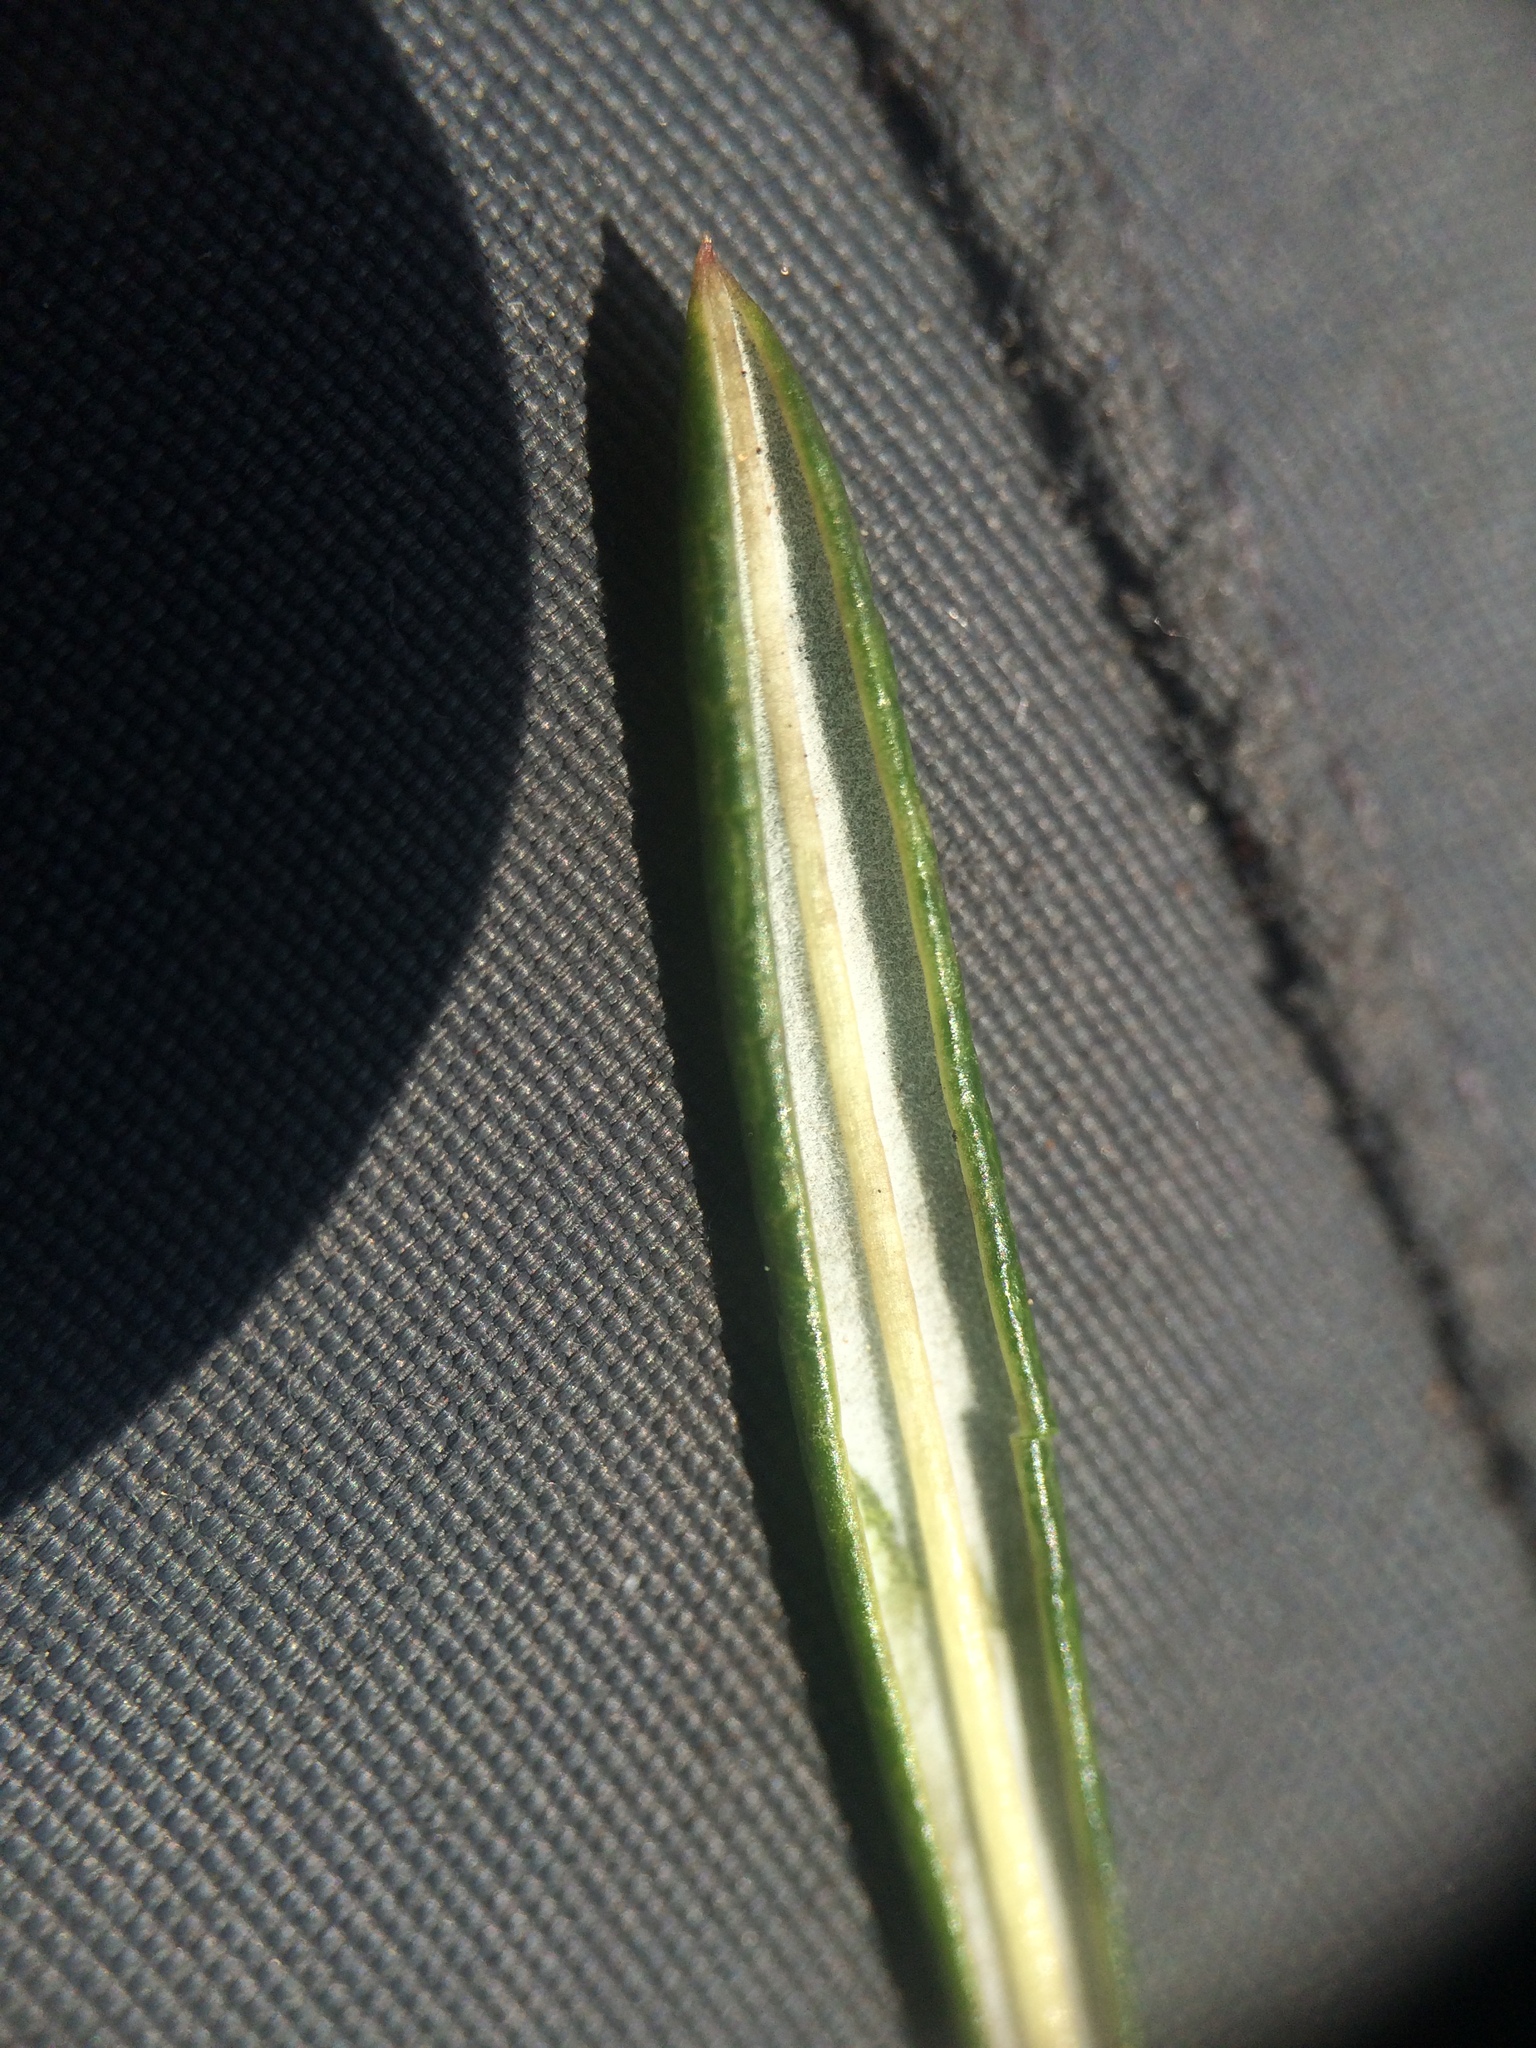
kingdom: Plantae
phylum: Tracheophyta
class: Magnoliopsida
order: Ericales
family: Ericaceae
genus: Andromeda
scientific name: Andromeda polifolia
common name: Bog-rosemary
